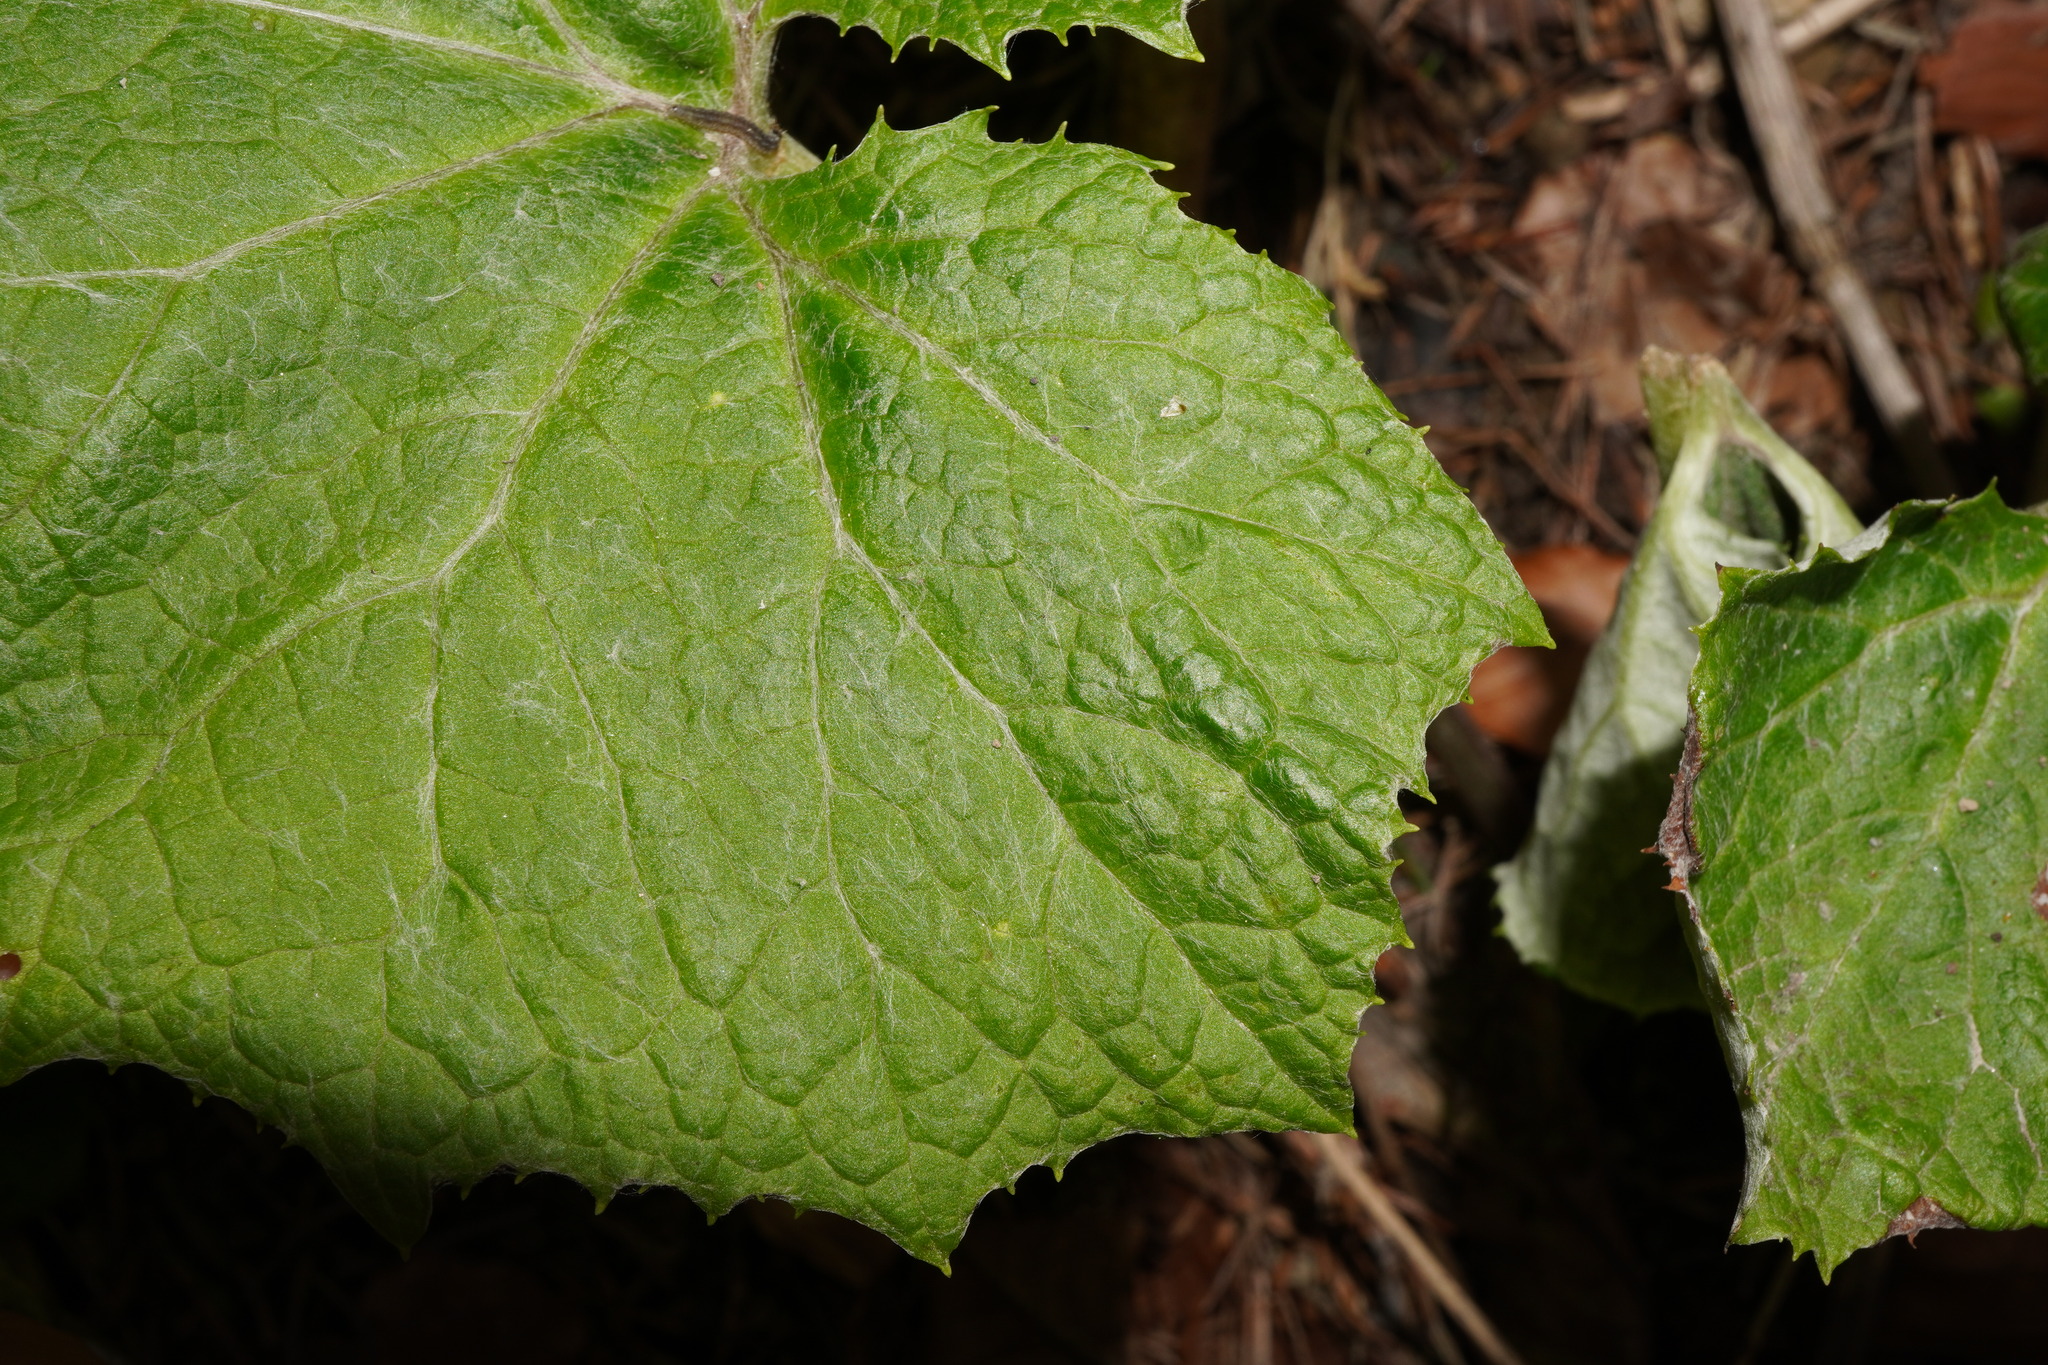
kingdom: Plantae
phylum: Tracheophyta
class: Magnoliopsida
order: Asterales
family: Asteraceae
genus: Petasites
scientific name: Petasites albus
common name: White butterbur
